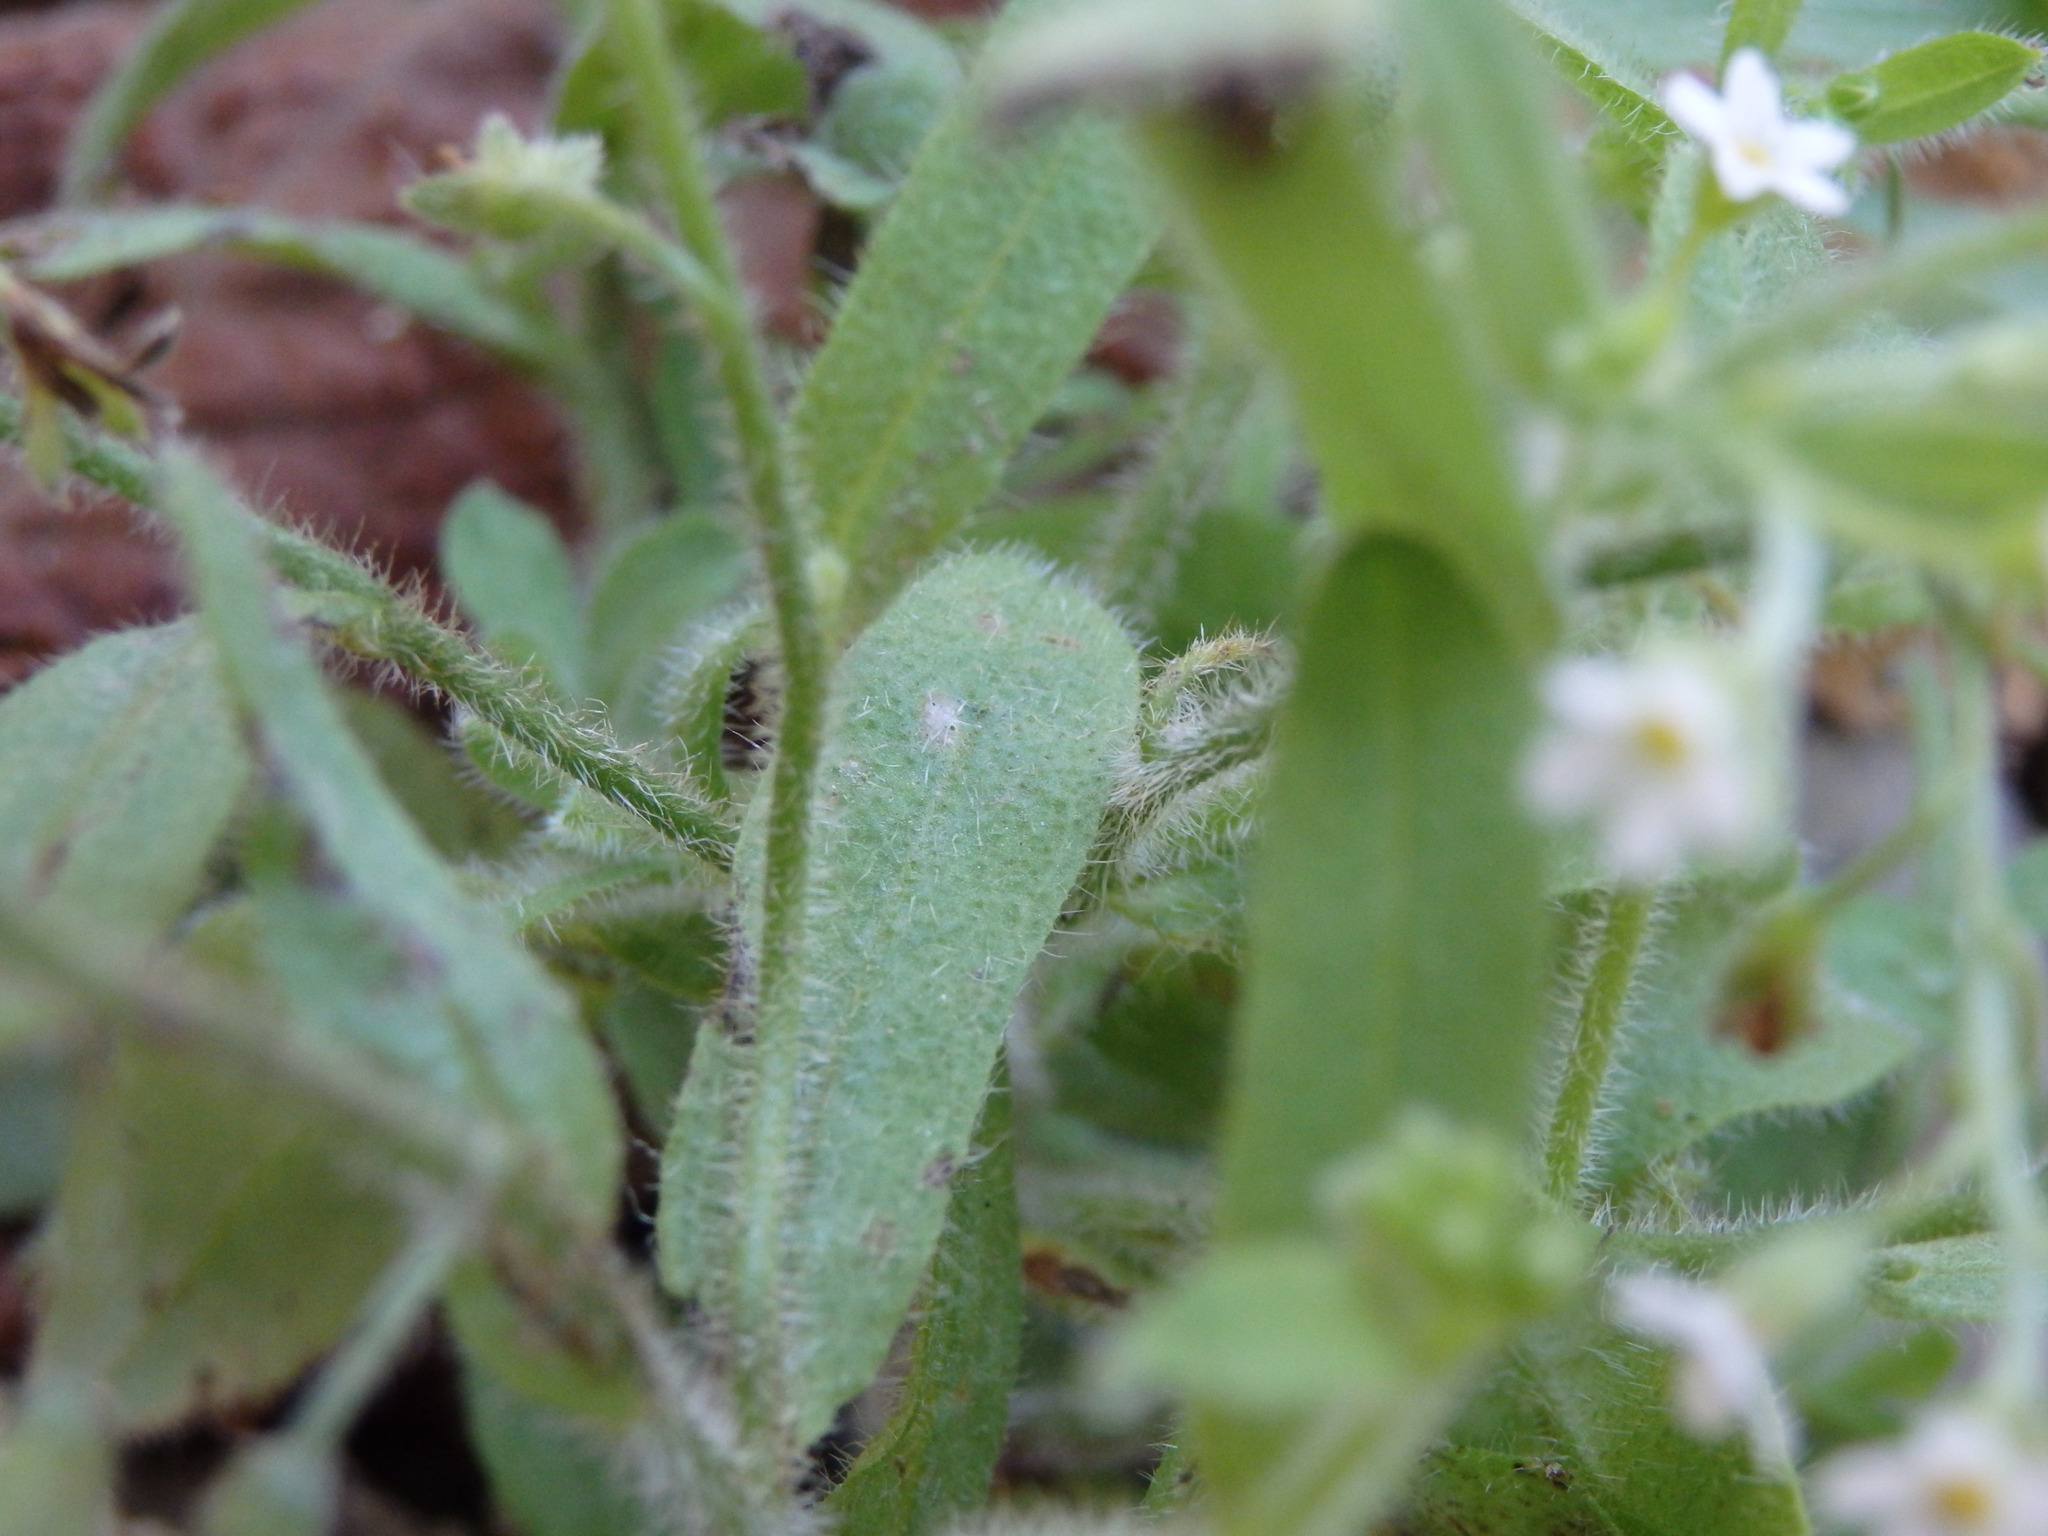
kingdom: Plantae
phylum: Tracheophyta
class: Magnoliopsida
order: Boraginales
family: Boraginaceae
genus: Myosotis
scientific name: Myosotis laxa
